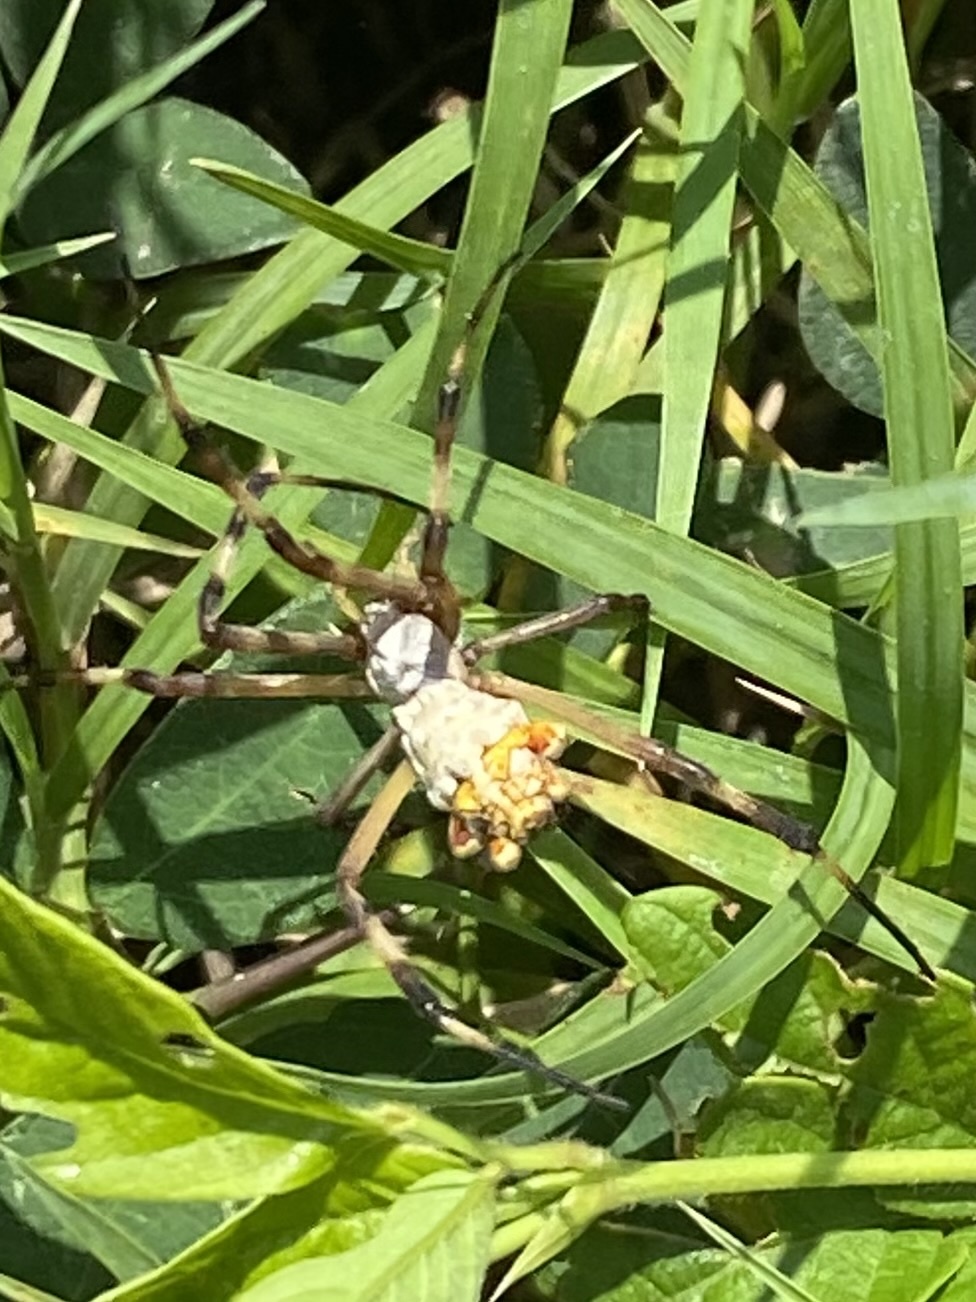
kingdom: Animalia
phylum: Arthropoda
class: Arachnida
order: Araneae
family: Araneidae
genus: Argiope
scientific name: Argiope argentata
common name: Orb weavers
